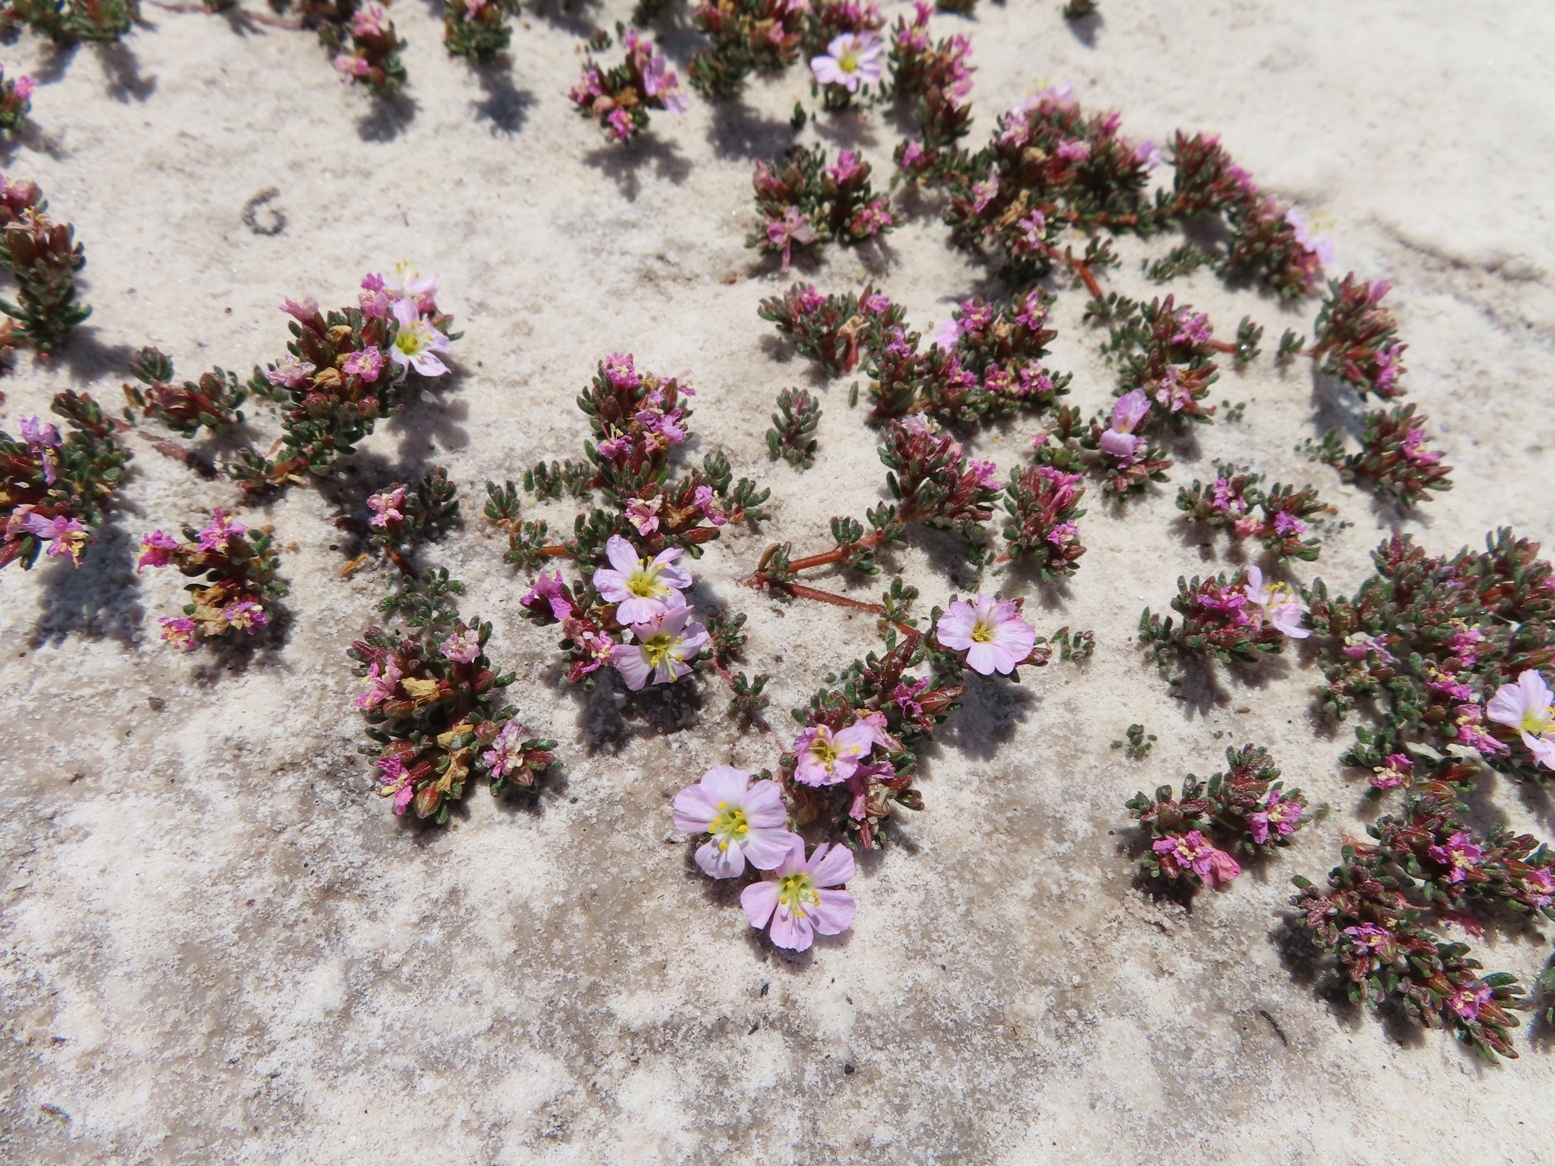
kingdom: Plantae
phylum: Tracheophyta
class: Magnoliopsida
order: Caryophyllales
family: Frankeniaceae
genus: Frankenia
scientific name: Frankenia repens
